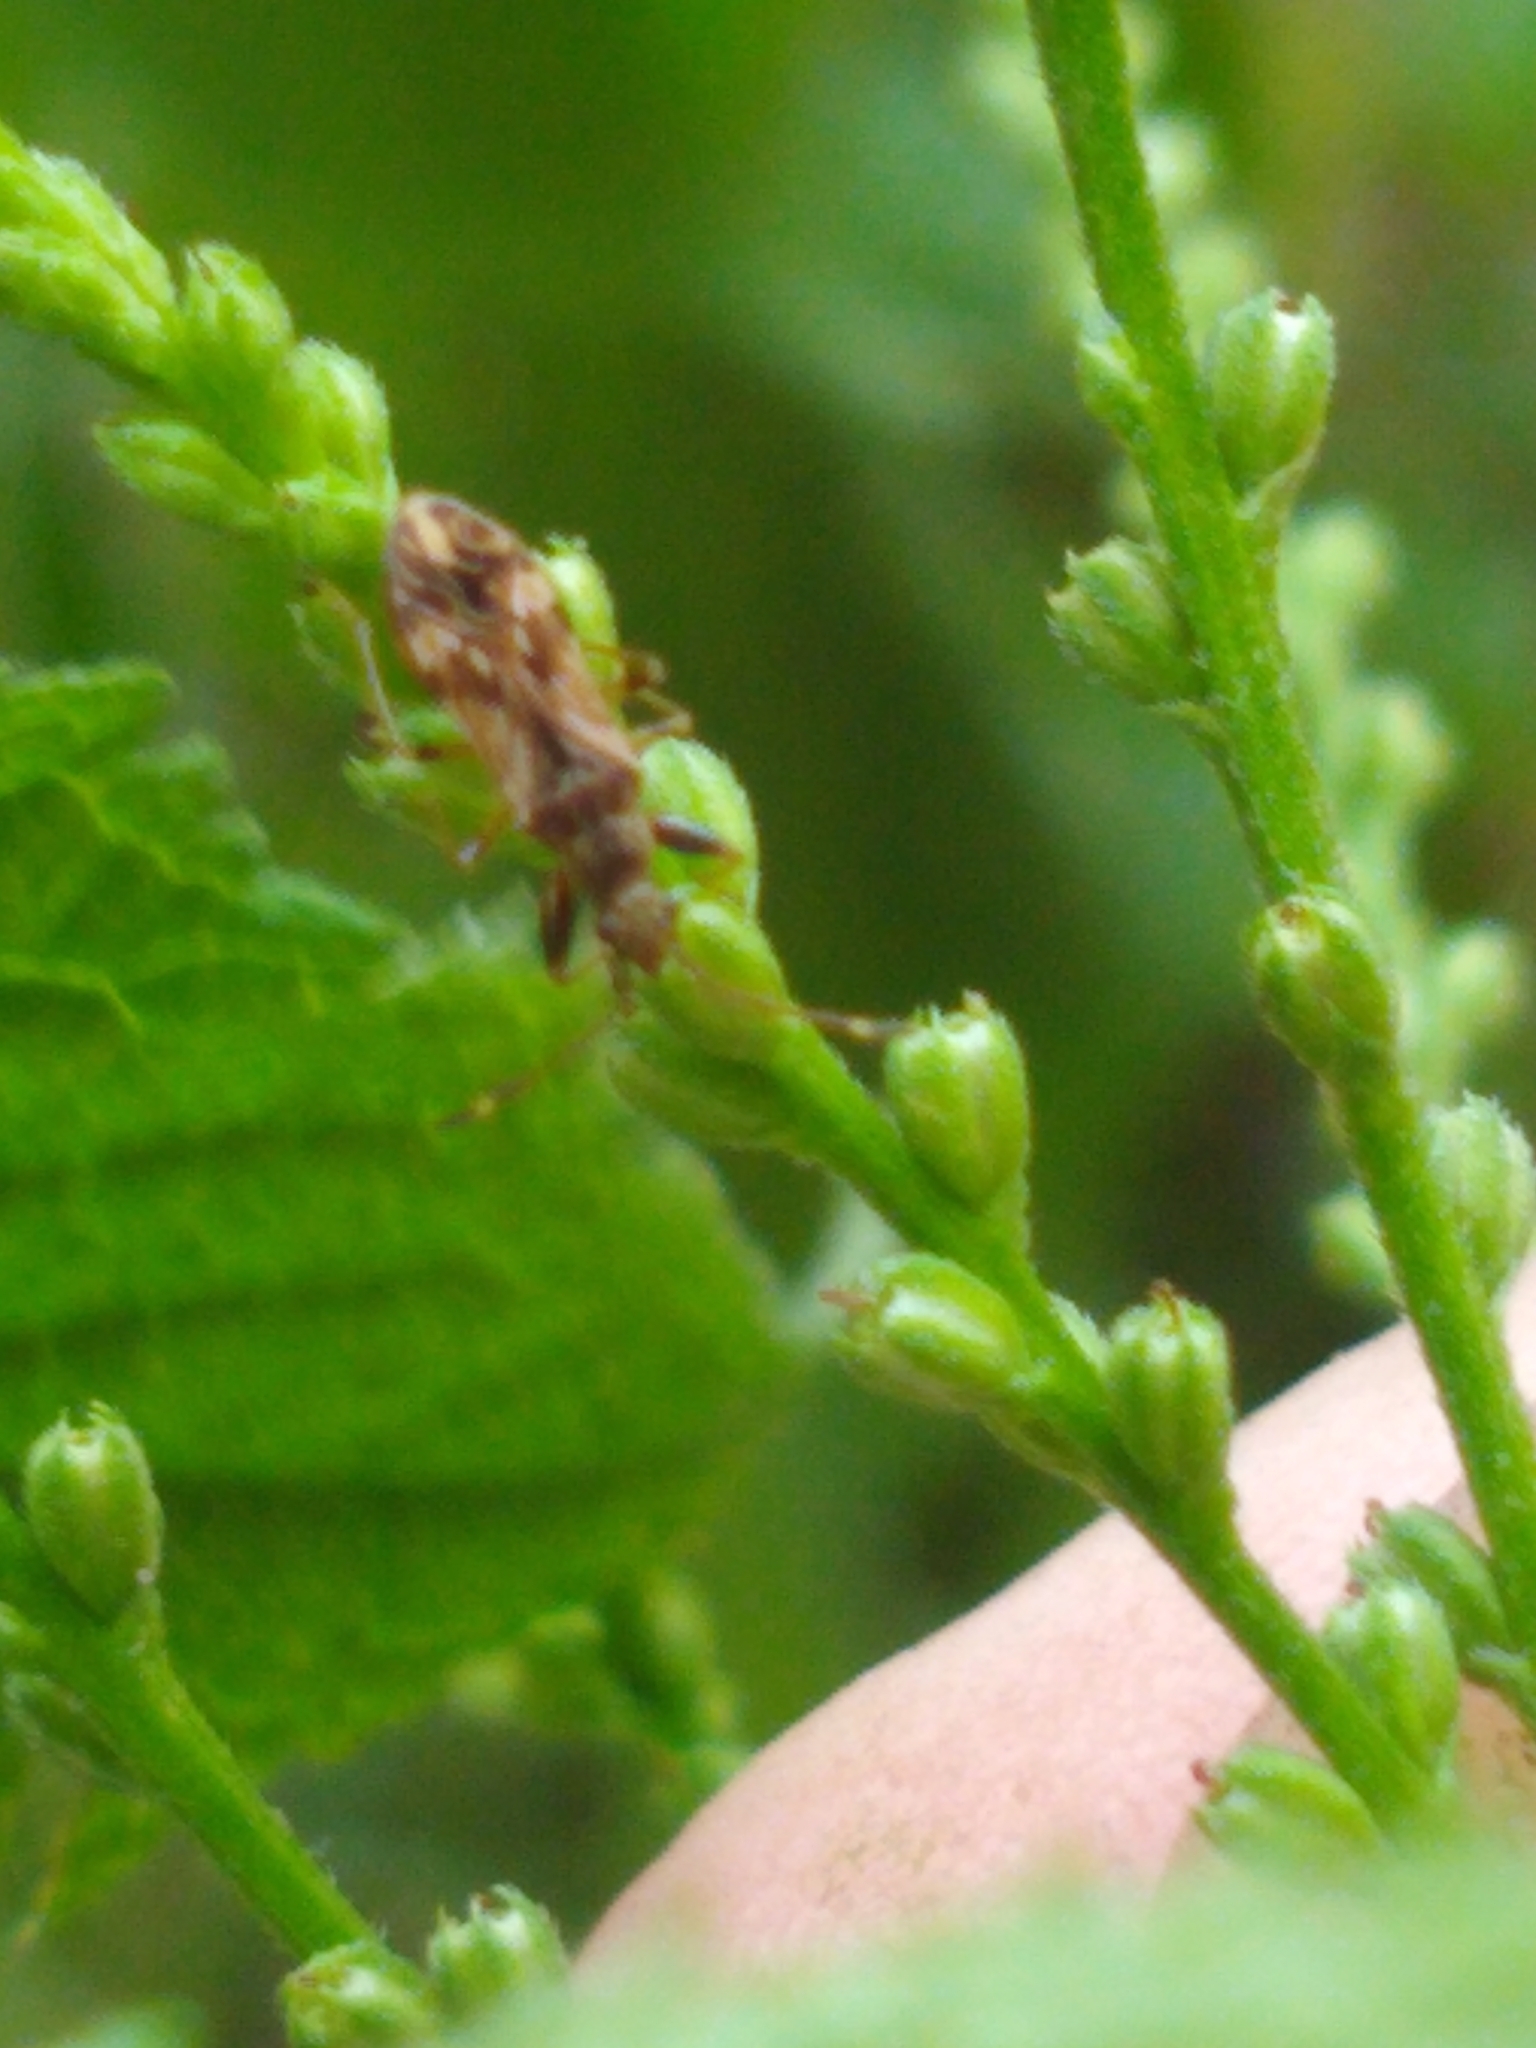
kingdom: Animalia
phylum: Arthropoda
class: Insecta
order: Hemiptera
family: Rhyparochromidae
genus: Neopamera
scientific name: Neopamera albocincta
